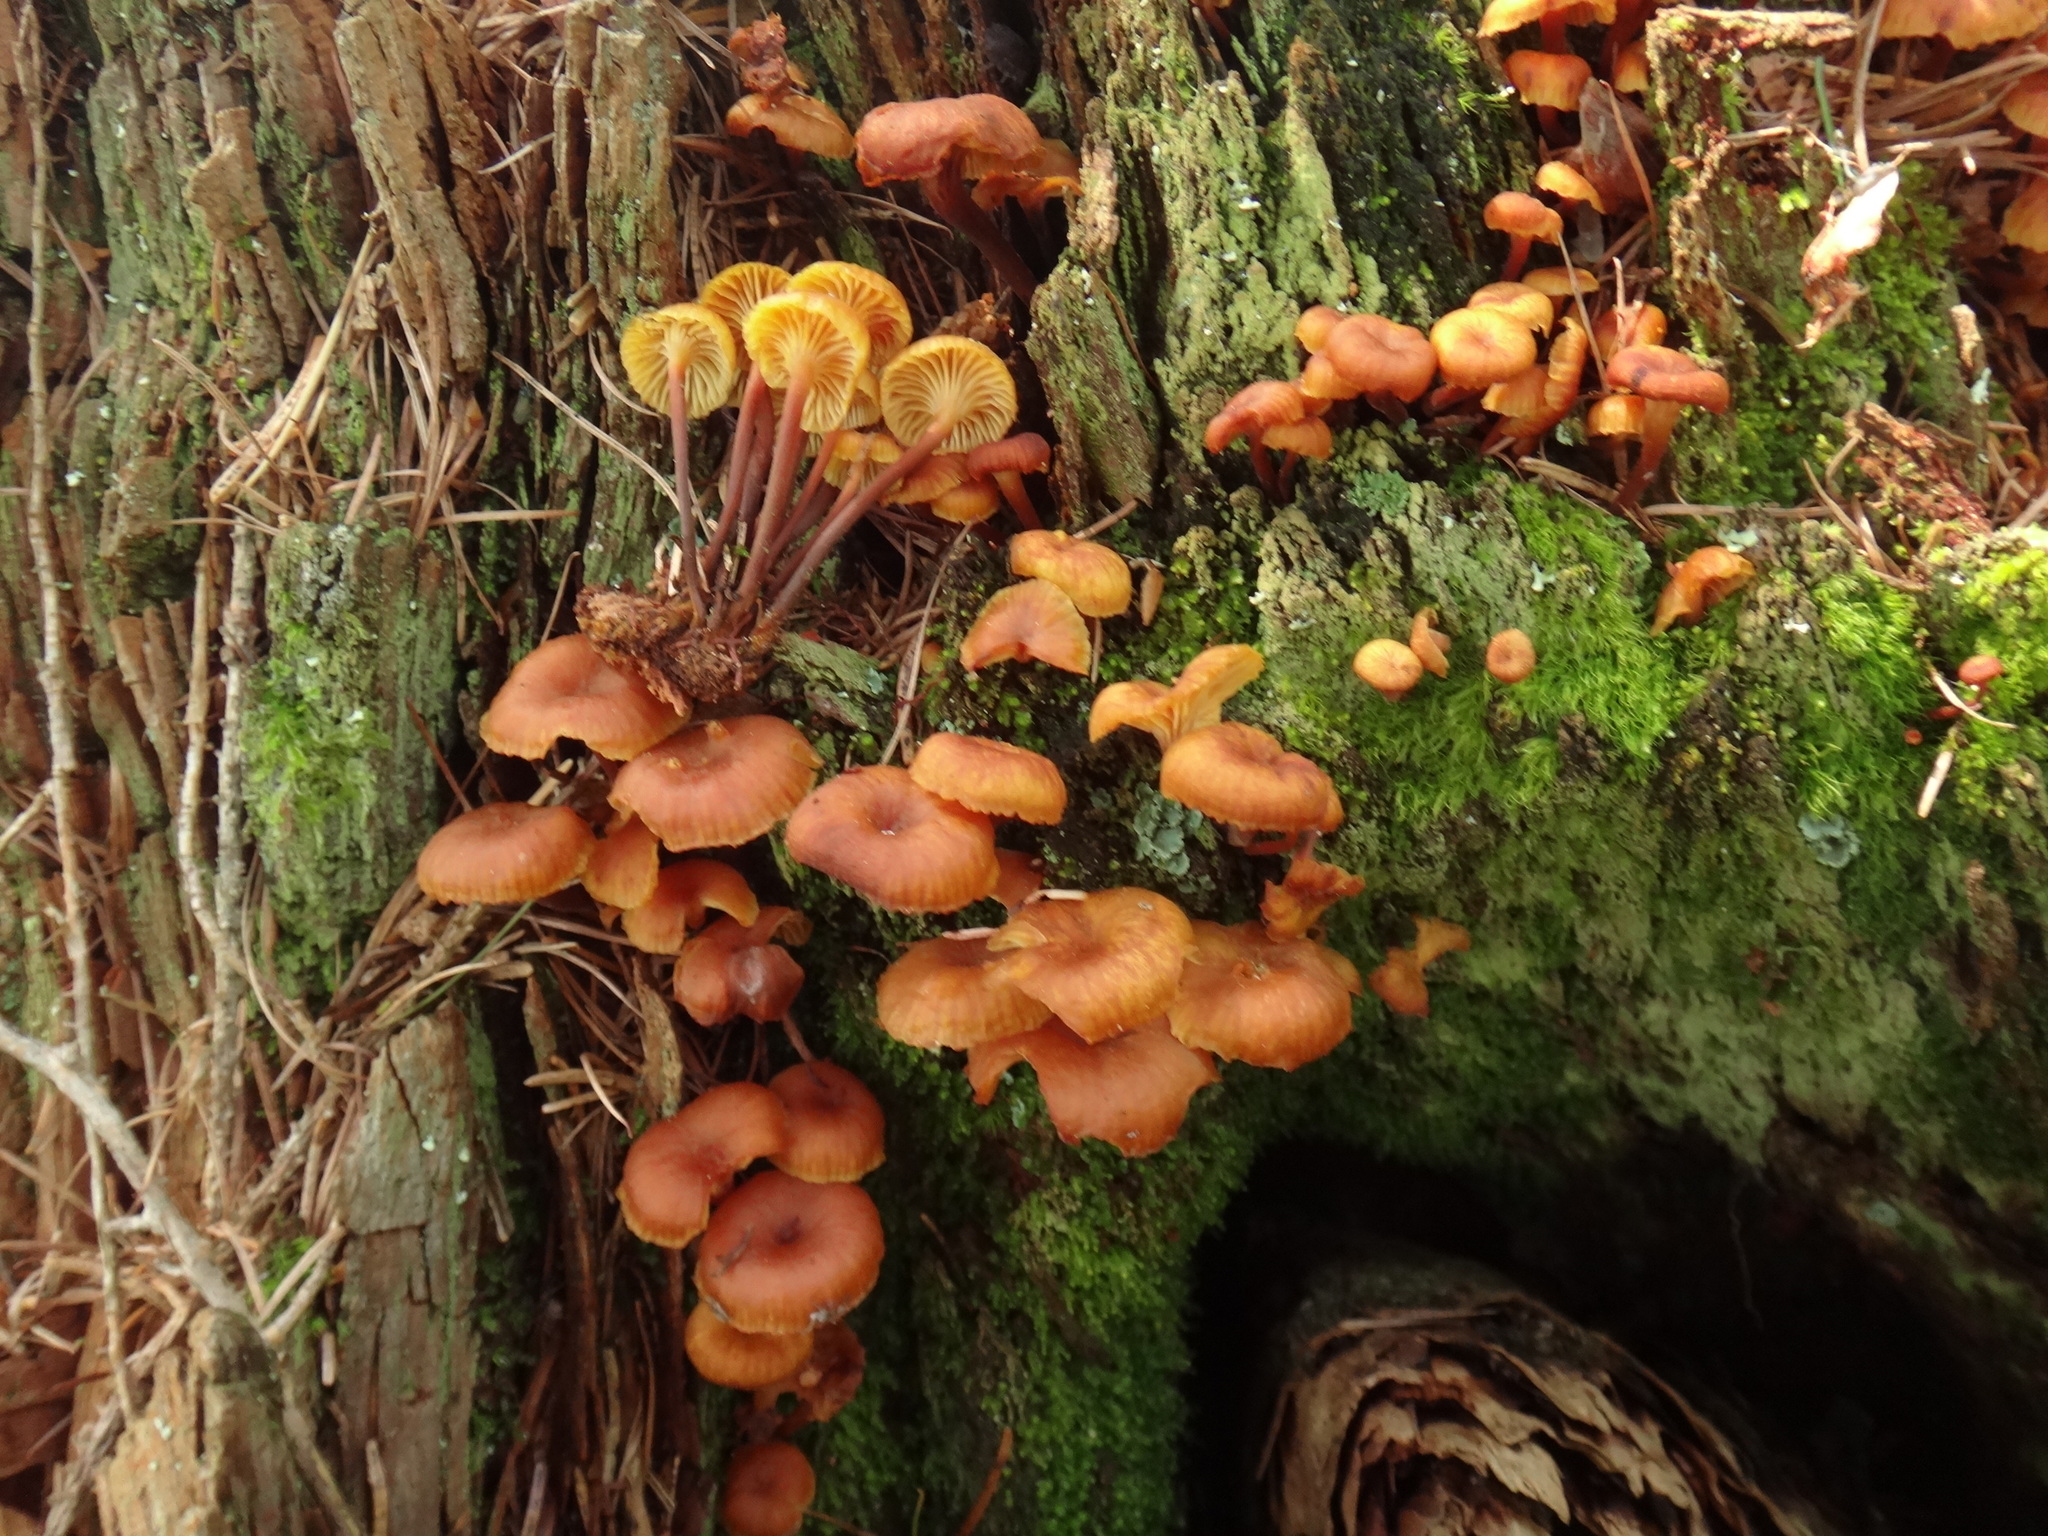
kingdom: Fungi
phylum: Basidiomycota
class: Agaricomycetes
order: Agaricales
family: Mycenaceae
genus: Xeromphalina
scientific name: Xeromphalina campanella
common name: Pinewood gingertail
